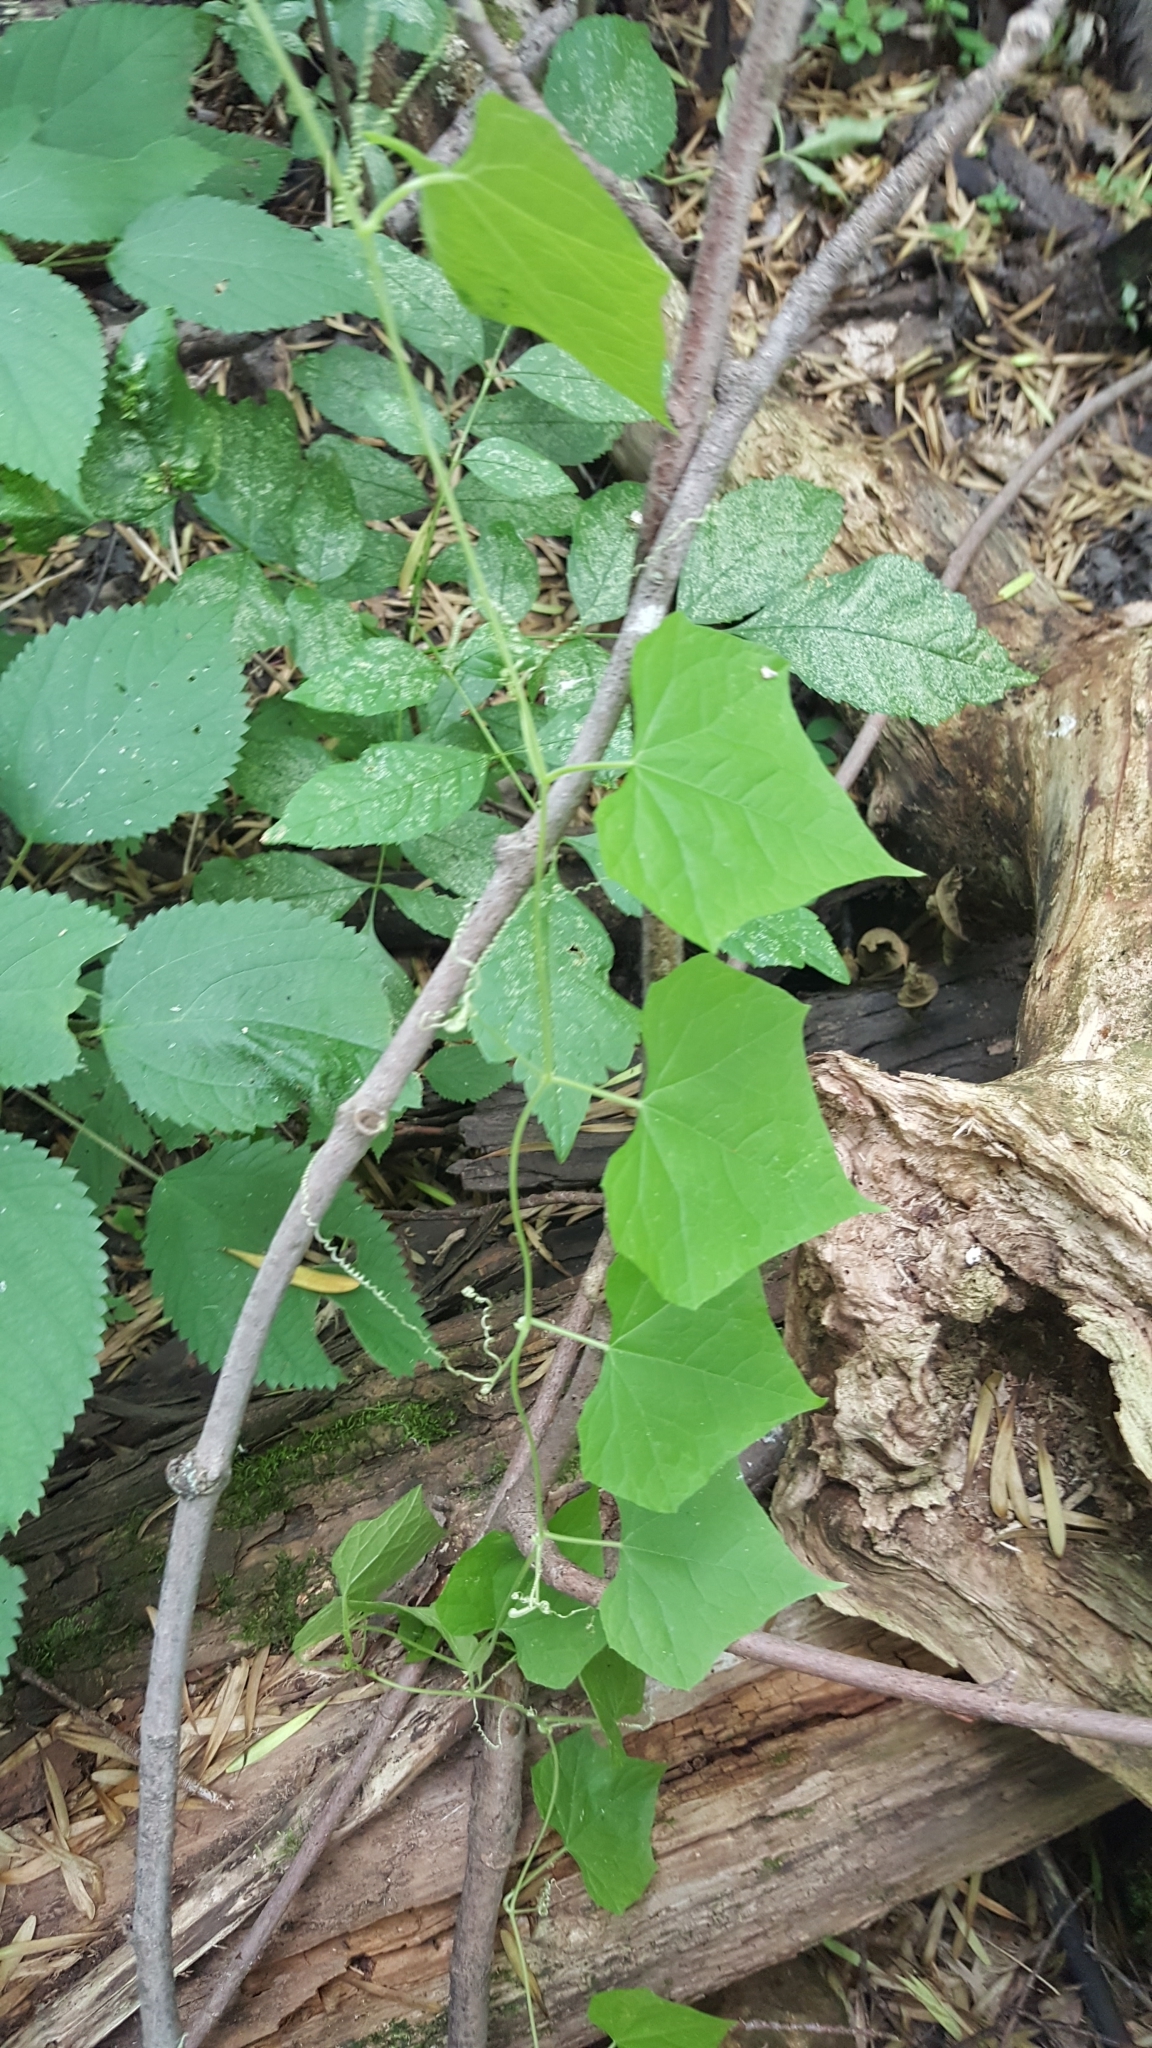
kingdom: Plantae
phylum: Tracheophyta
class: Magnoliopsida
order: Cucurbitales
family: Cucurbitaceae
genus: Sicyos
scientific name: Sicyos angulatus
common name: Angled burr cucumber
